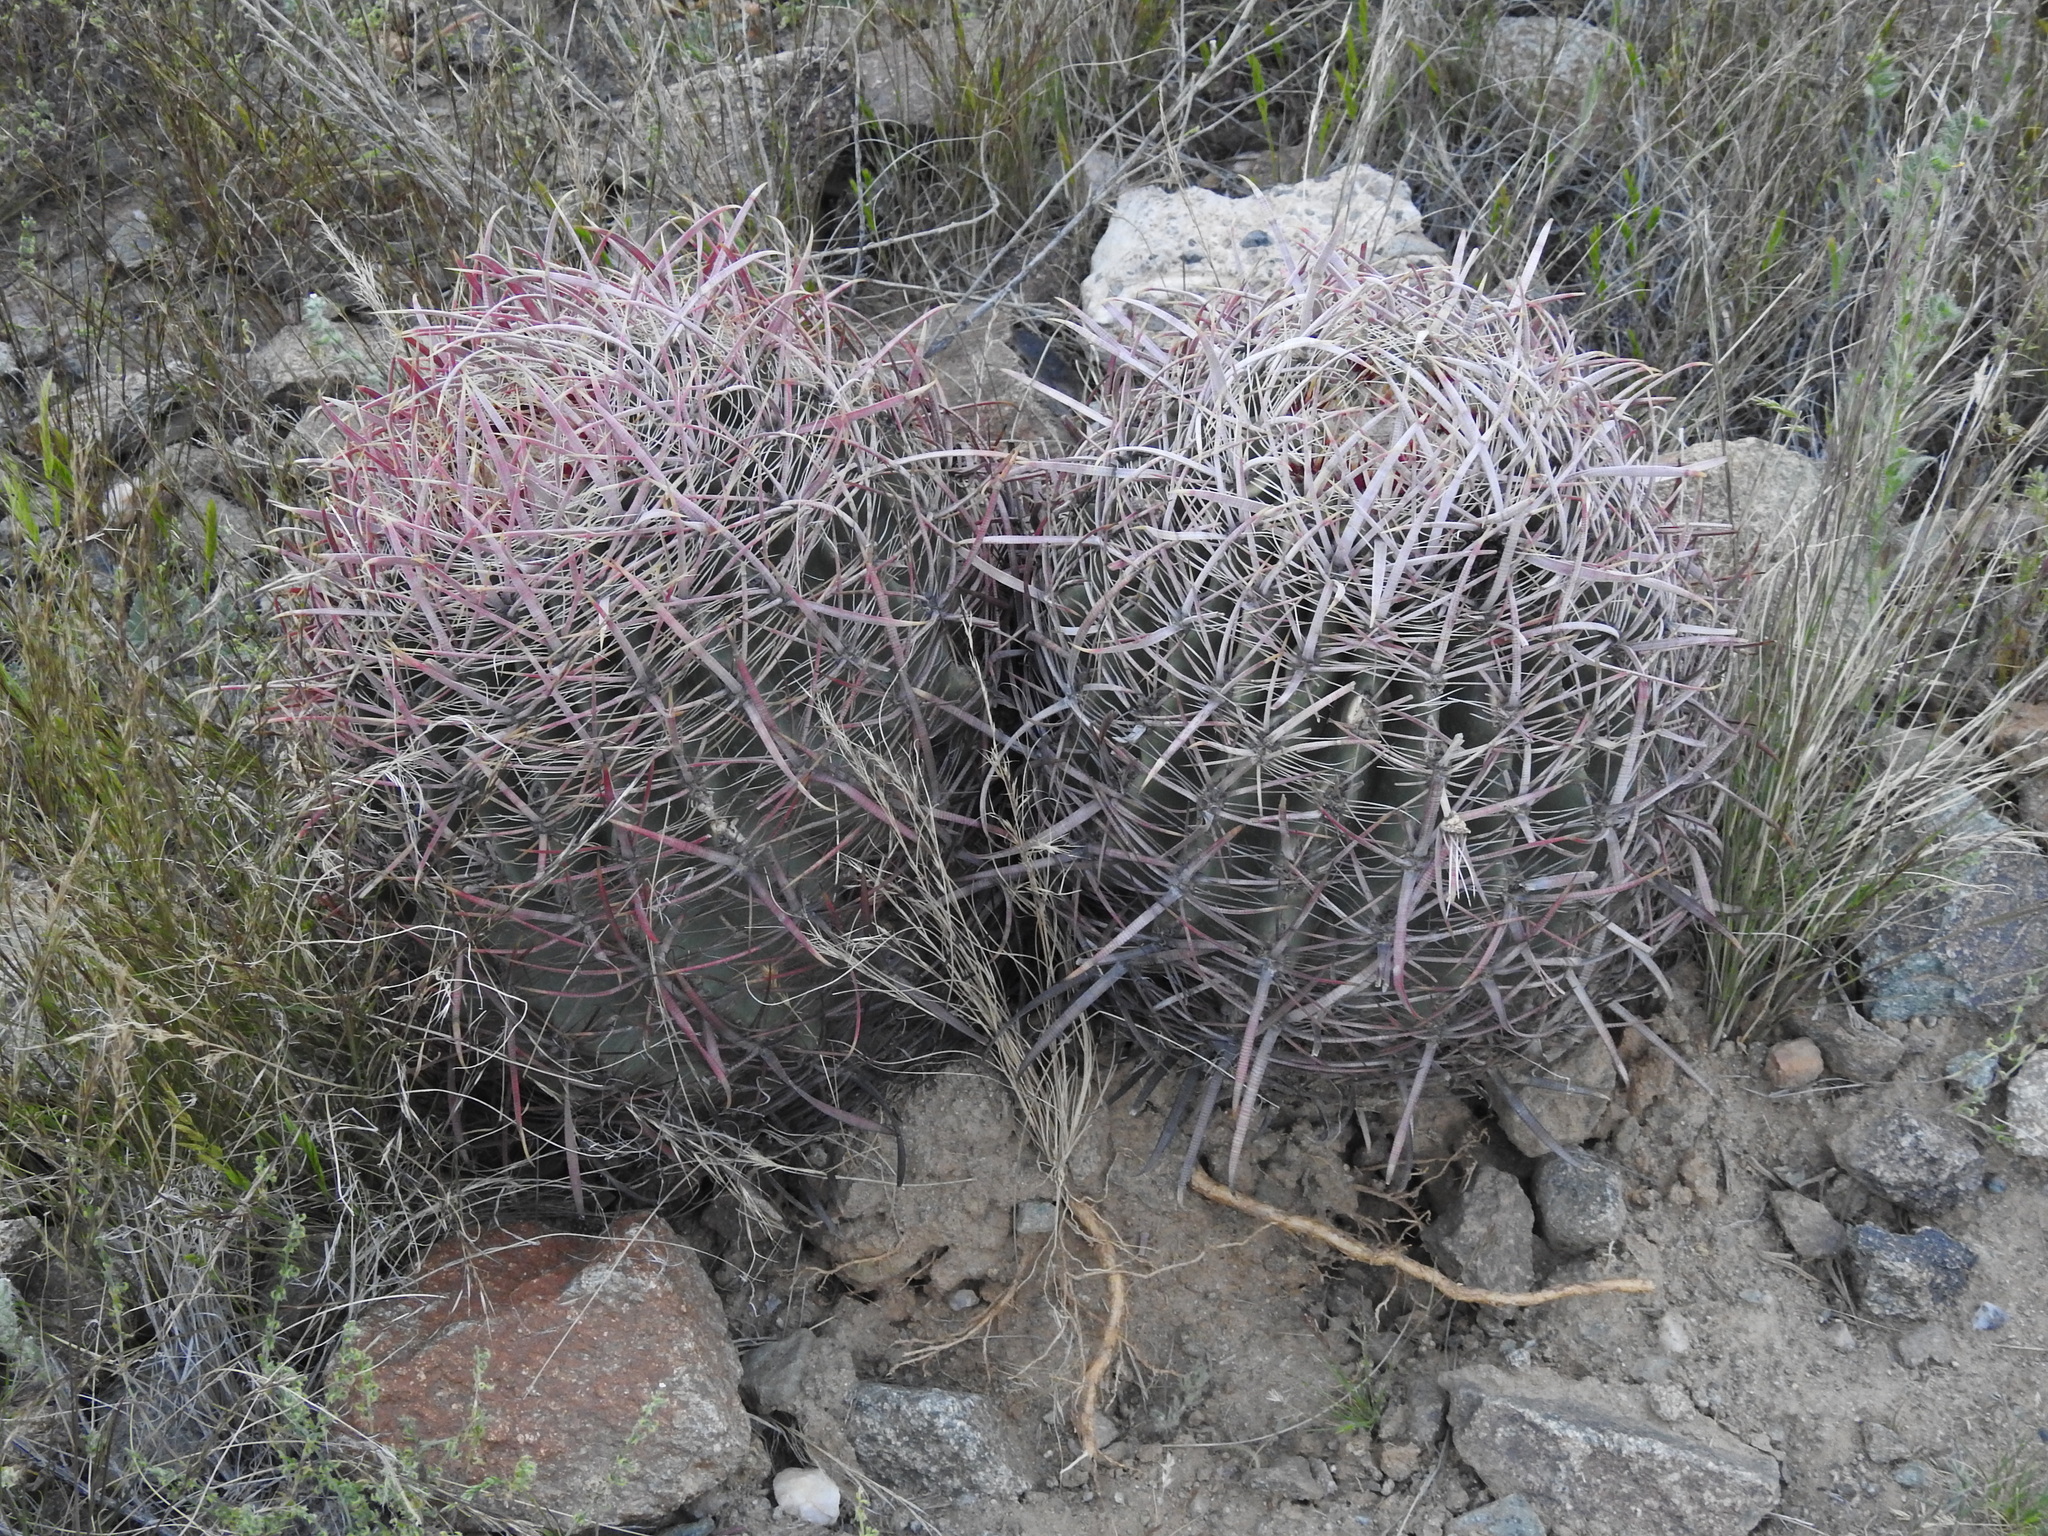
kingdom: Plantae
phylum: Tracheophyta
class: Magnoliopsida
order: Caryophyllales
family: Cactaceae
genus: Ferocactus
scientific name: Ferocactus cylindraceus
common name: California barrel cactus
